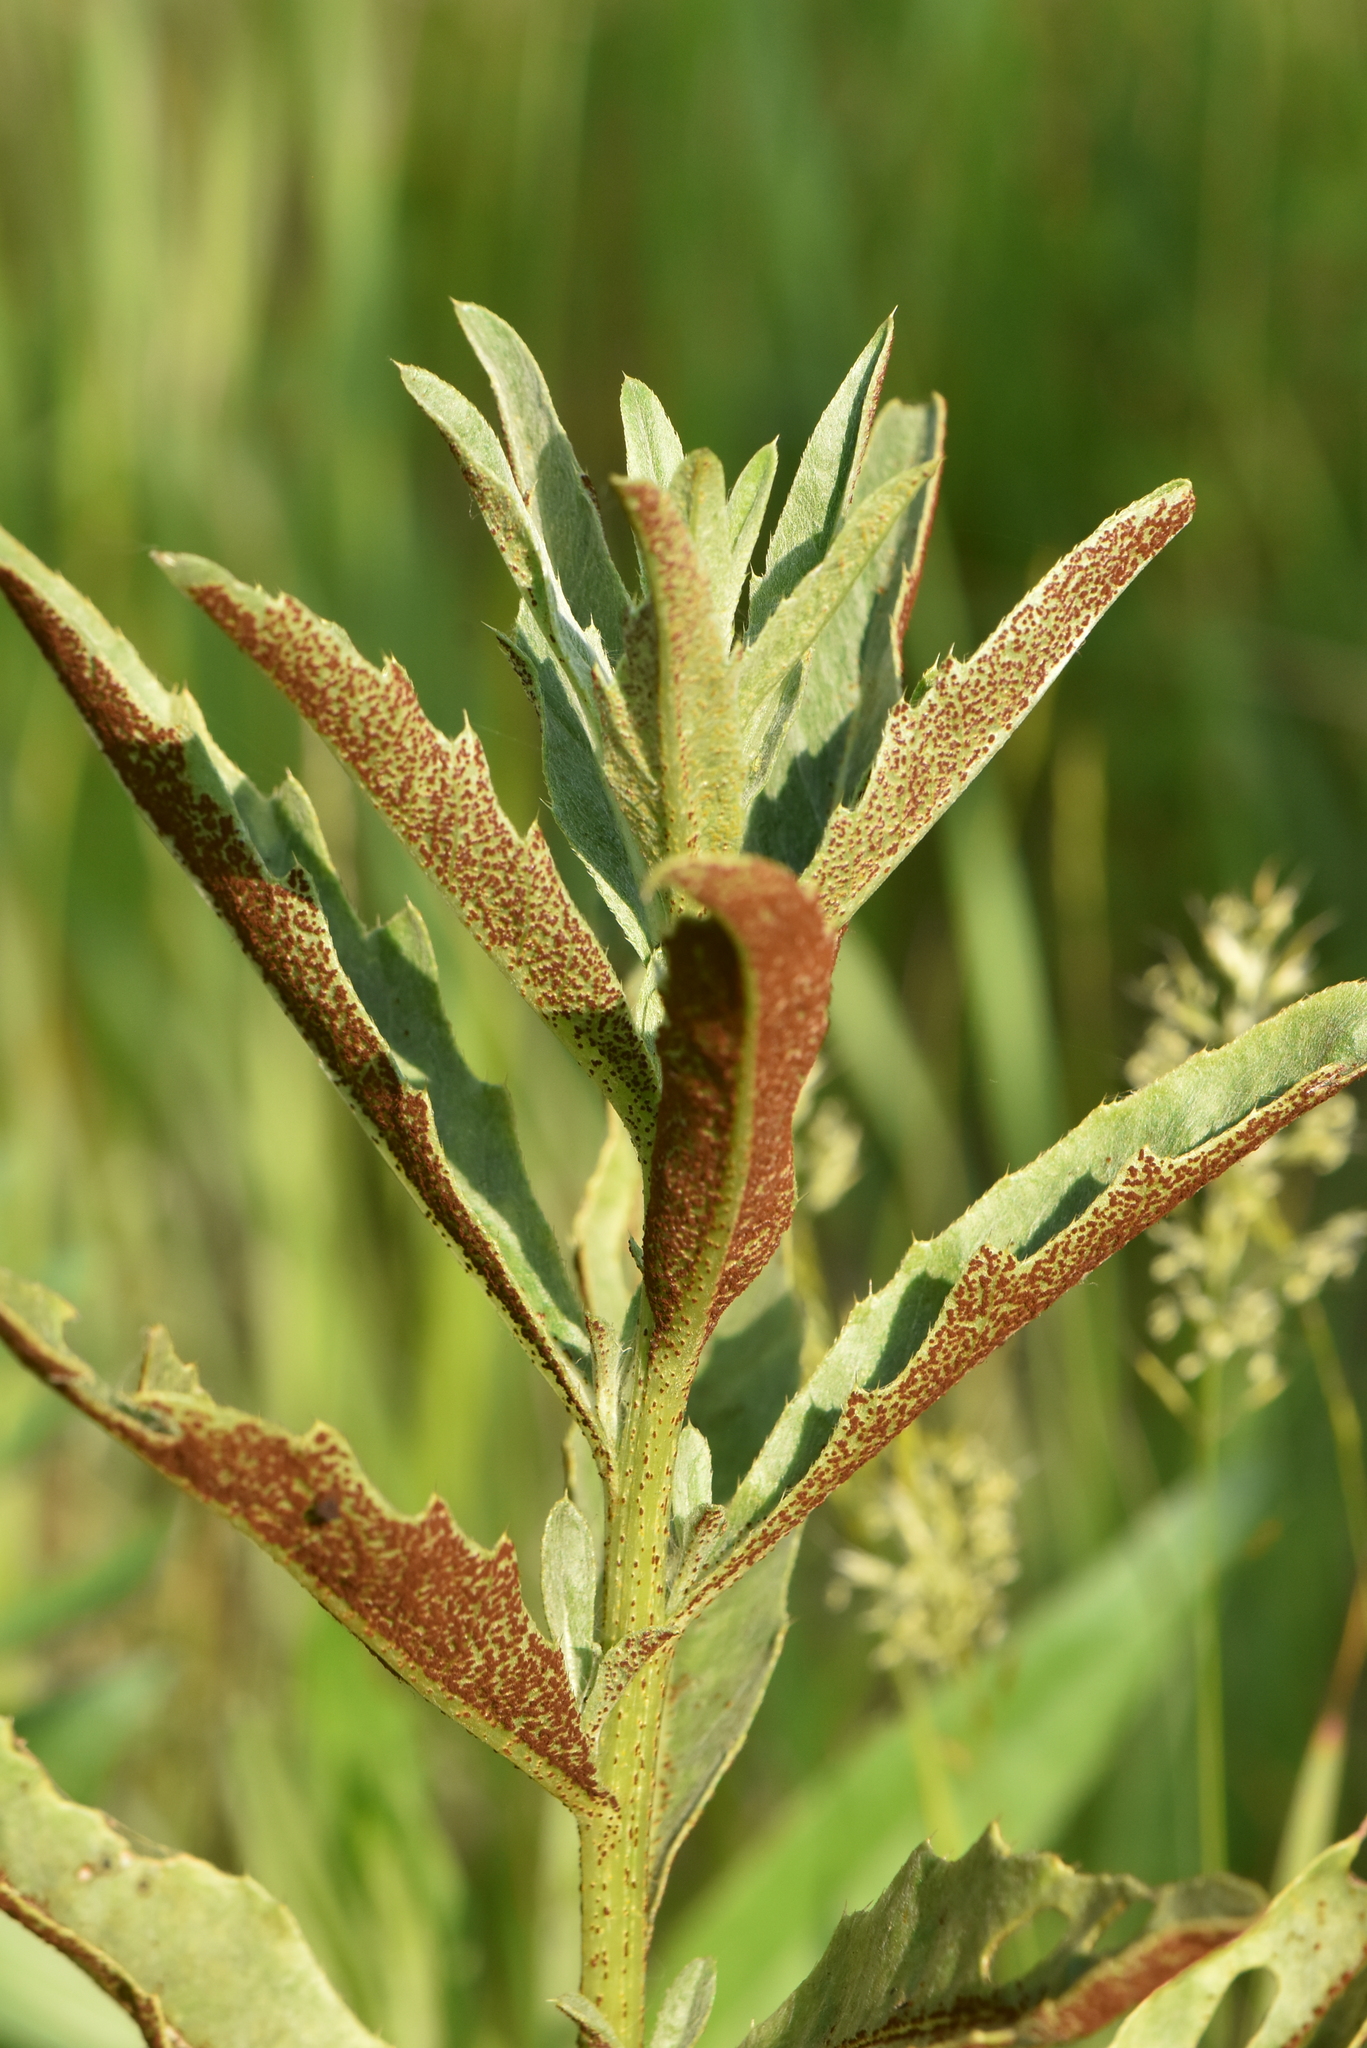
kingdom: Fungi
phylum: Basidiomycota
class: Pucciniomycetes
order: Pucciniales
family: Pucciniaceae
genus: Puccinia
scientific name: Puccinia suaveolens
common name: Thistle rust
